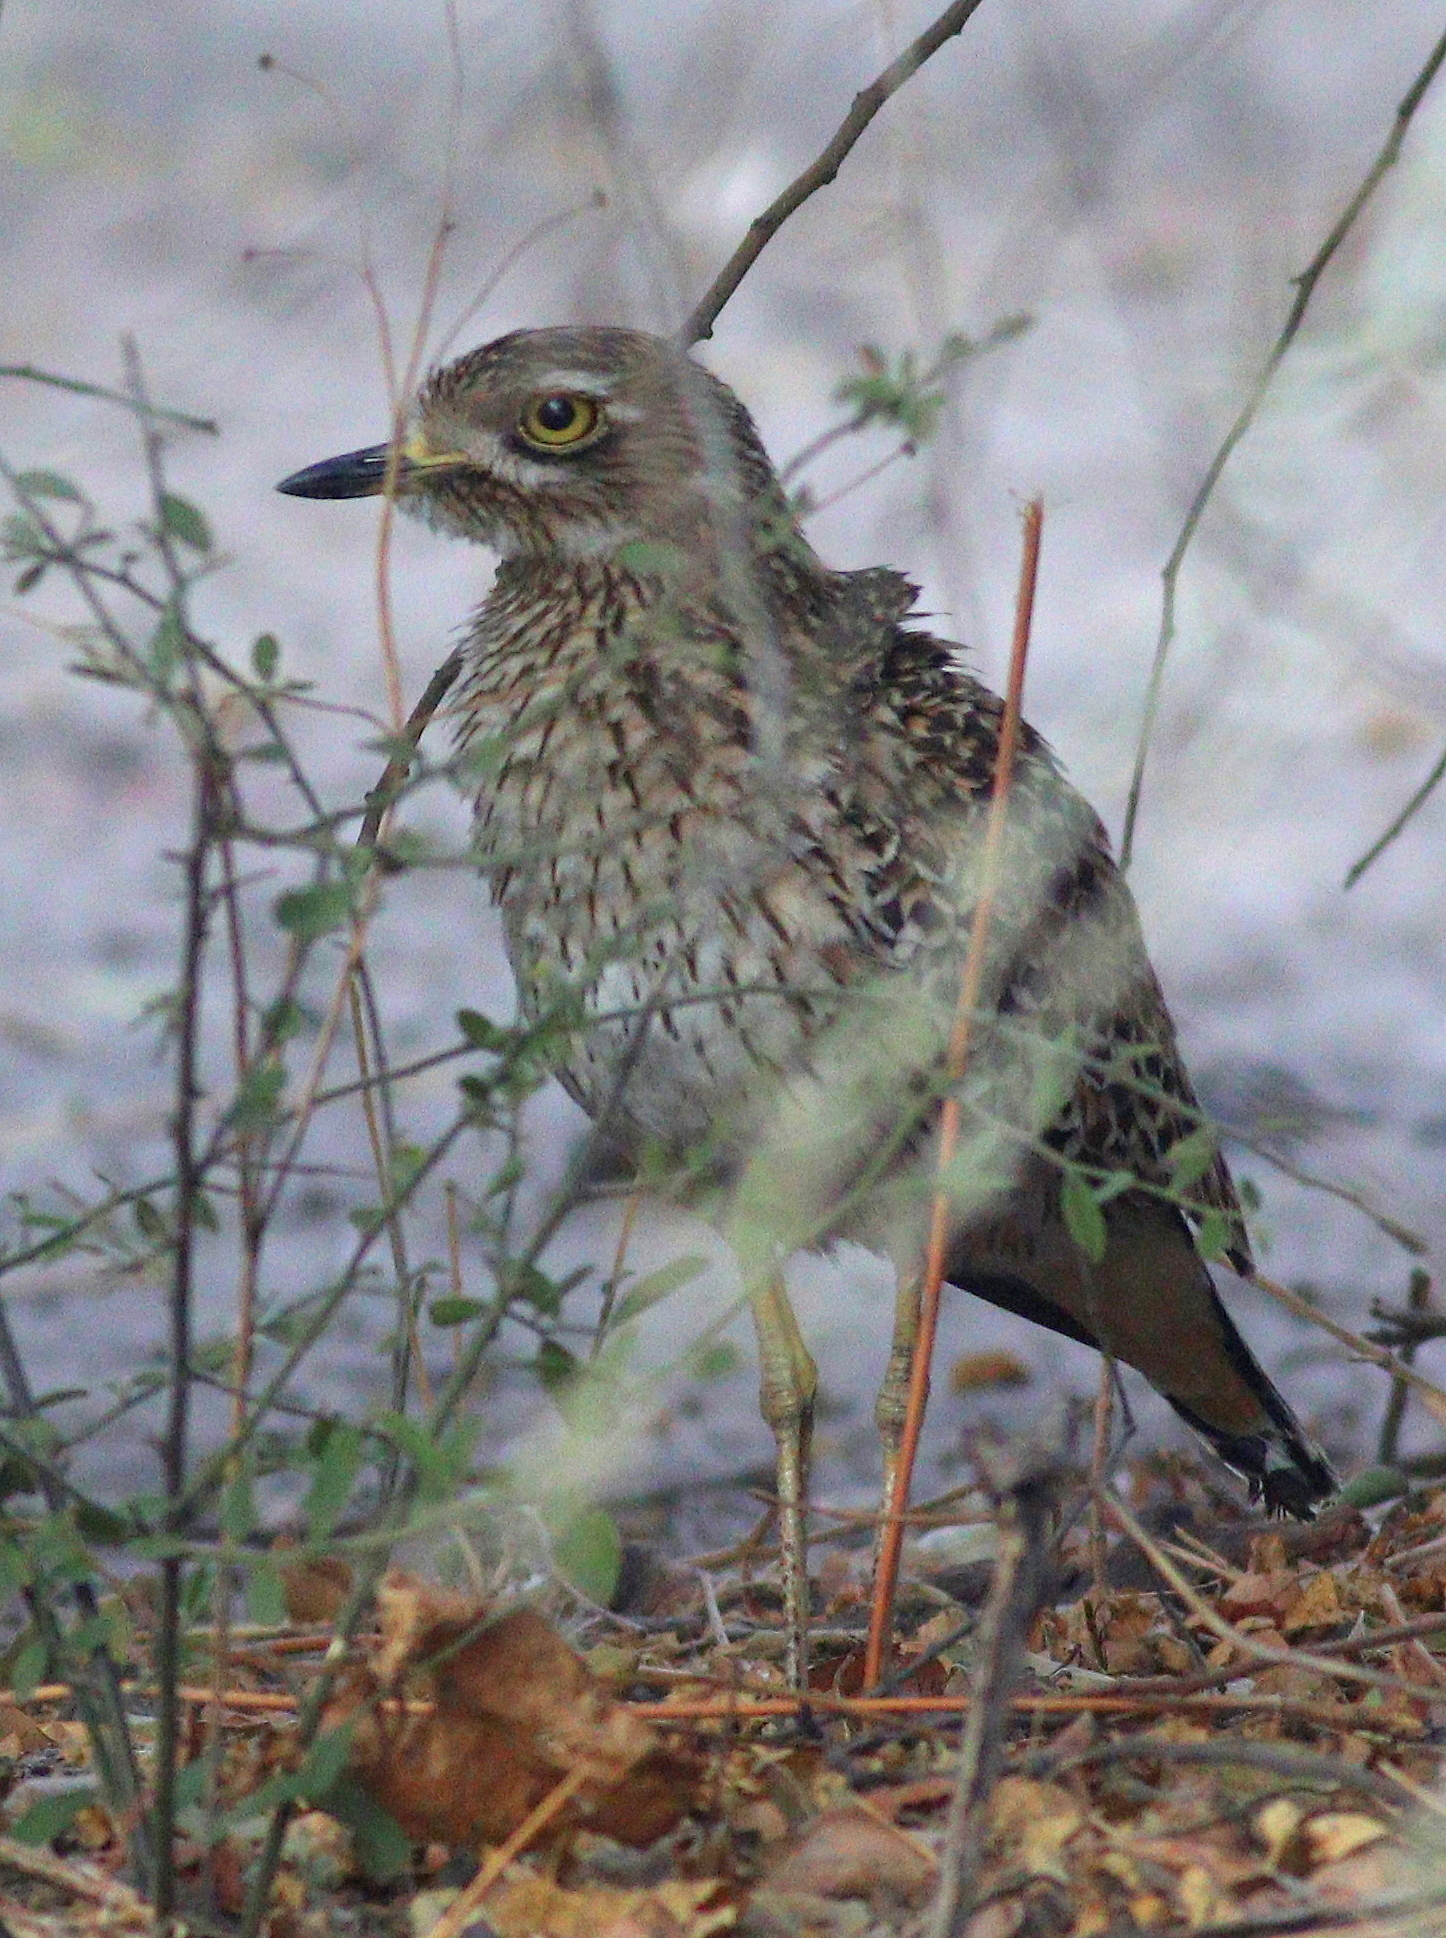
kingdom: Animalia
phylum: Chordata
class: Aves
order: Charadriiformes
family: Burhinidae
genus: Burhinus
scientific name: Burhinus capensis
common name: Spotted thick-knee
